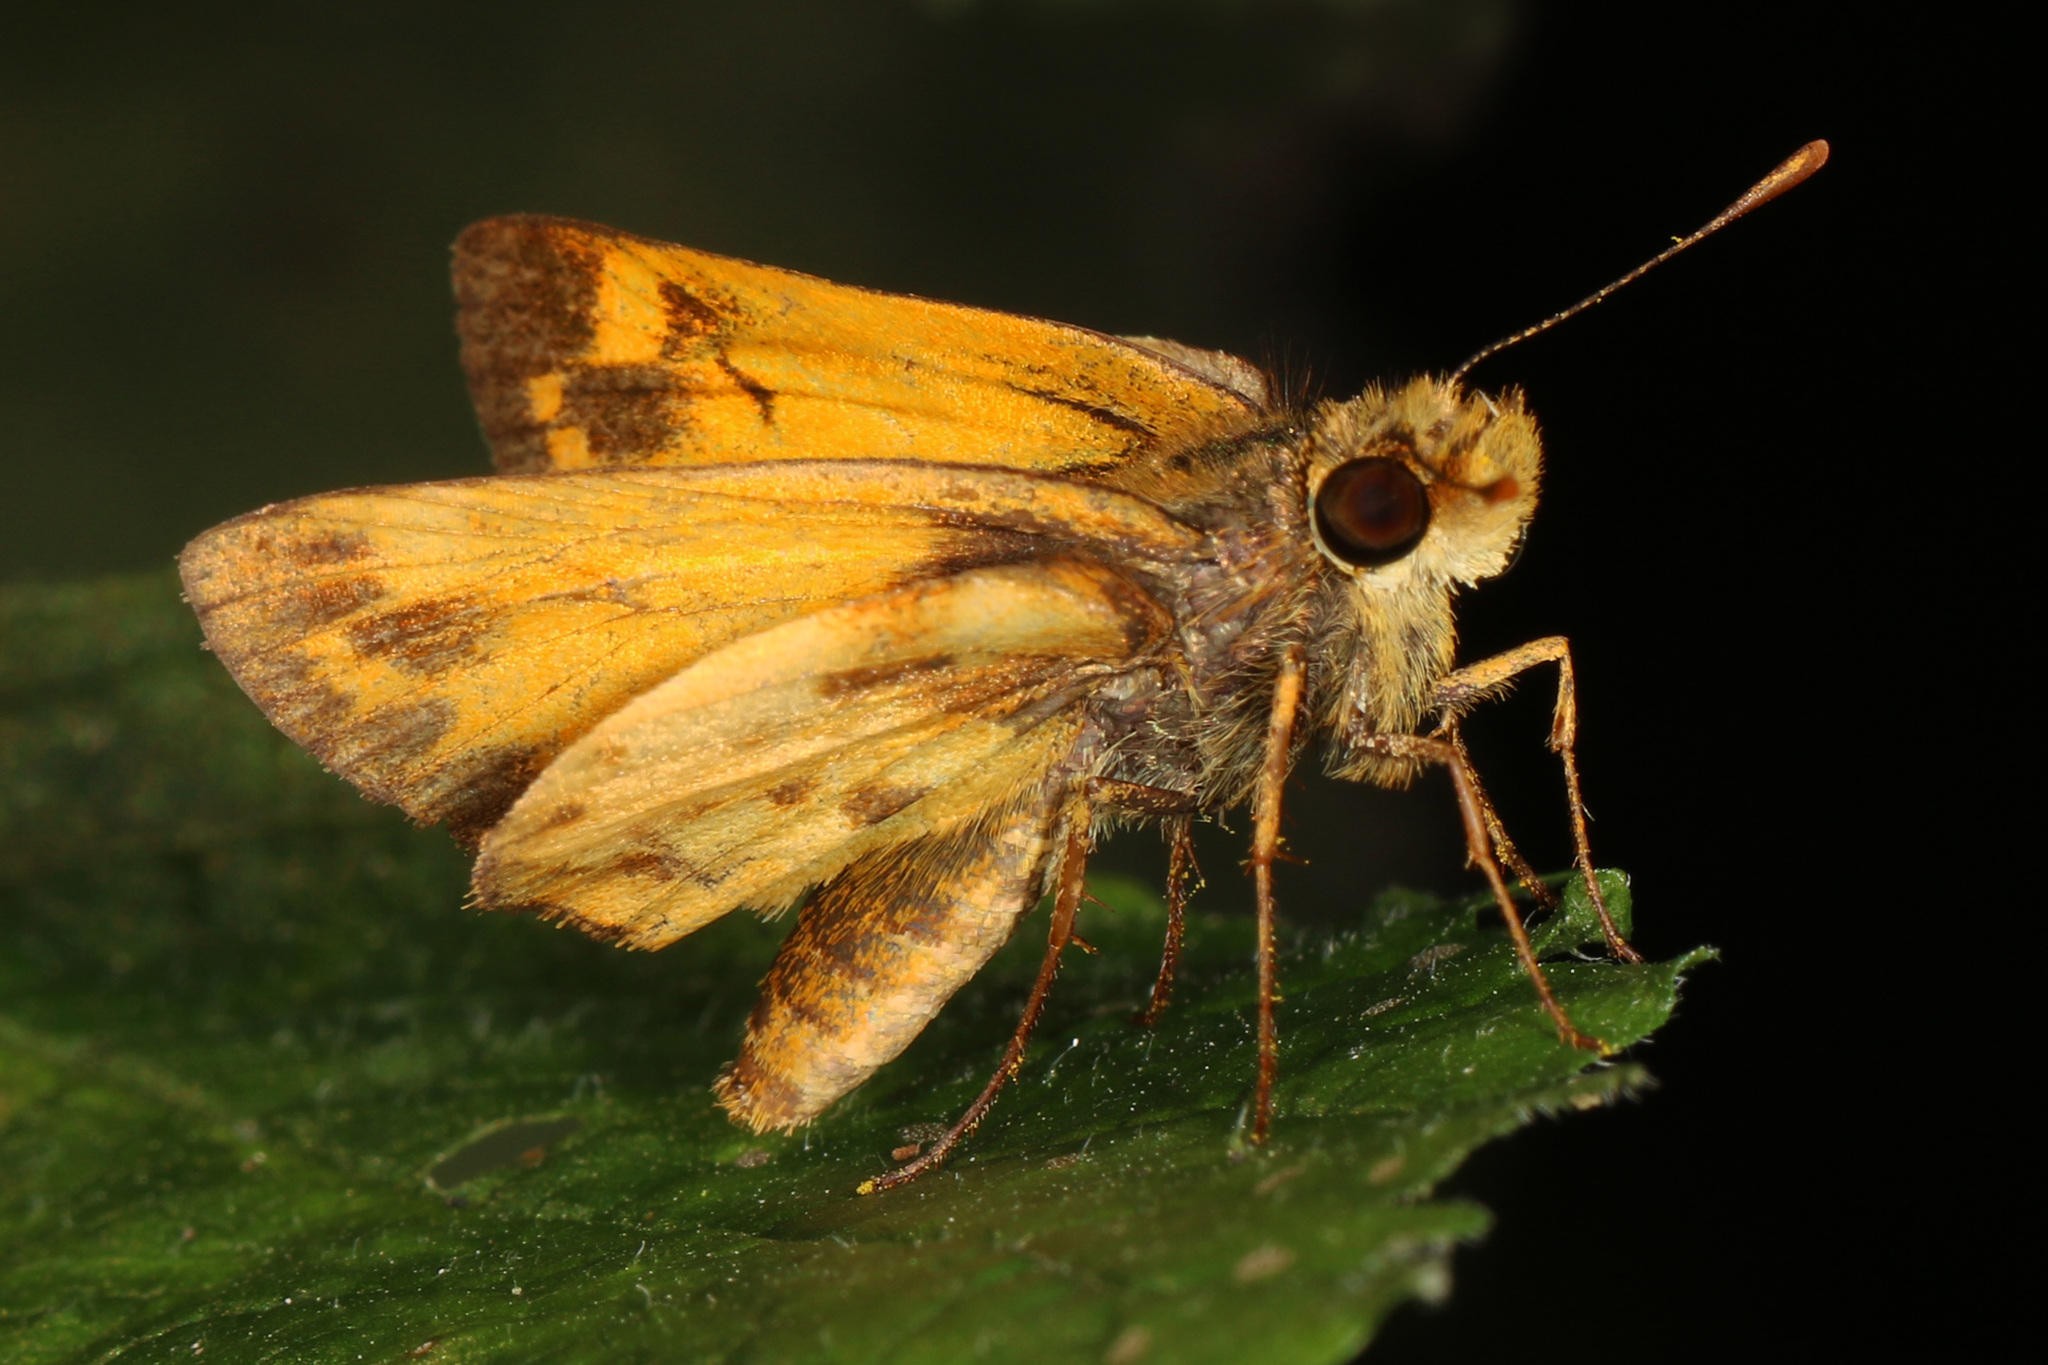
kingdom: Animalia
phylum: Arthropoda
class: Insecta
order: Lepidoptera
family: Hesperiidae
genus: Lon
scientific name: Lon zabulon
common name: Zabulon skipper
